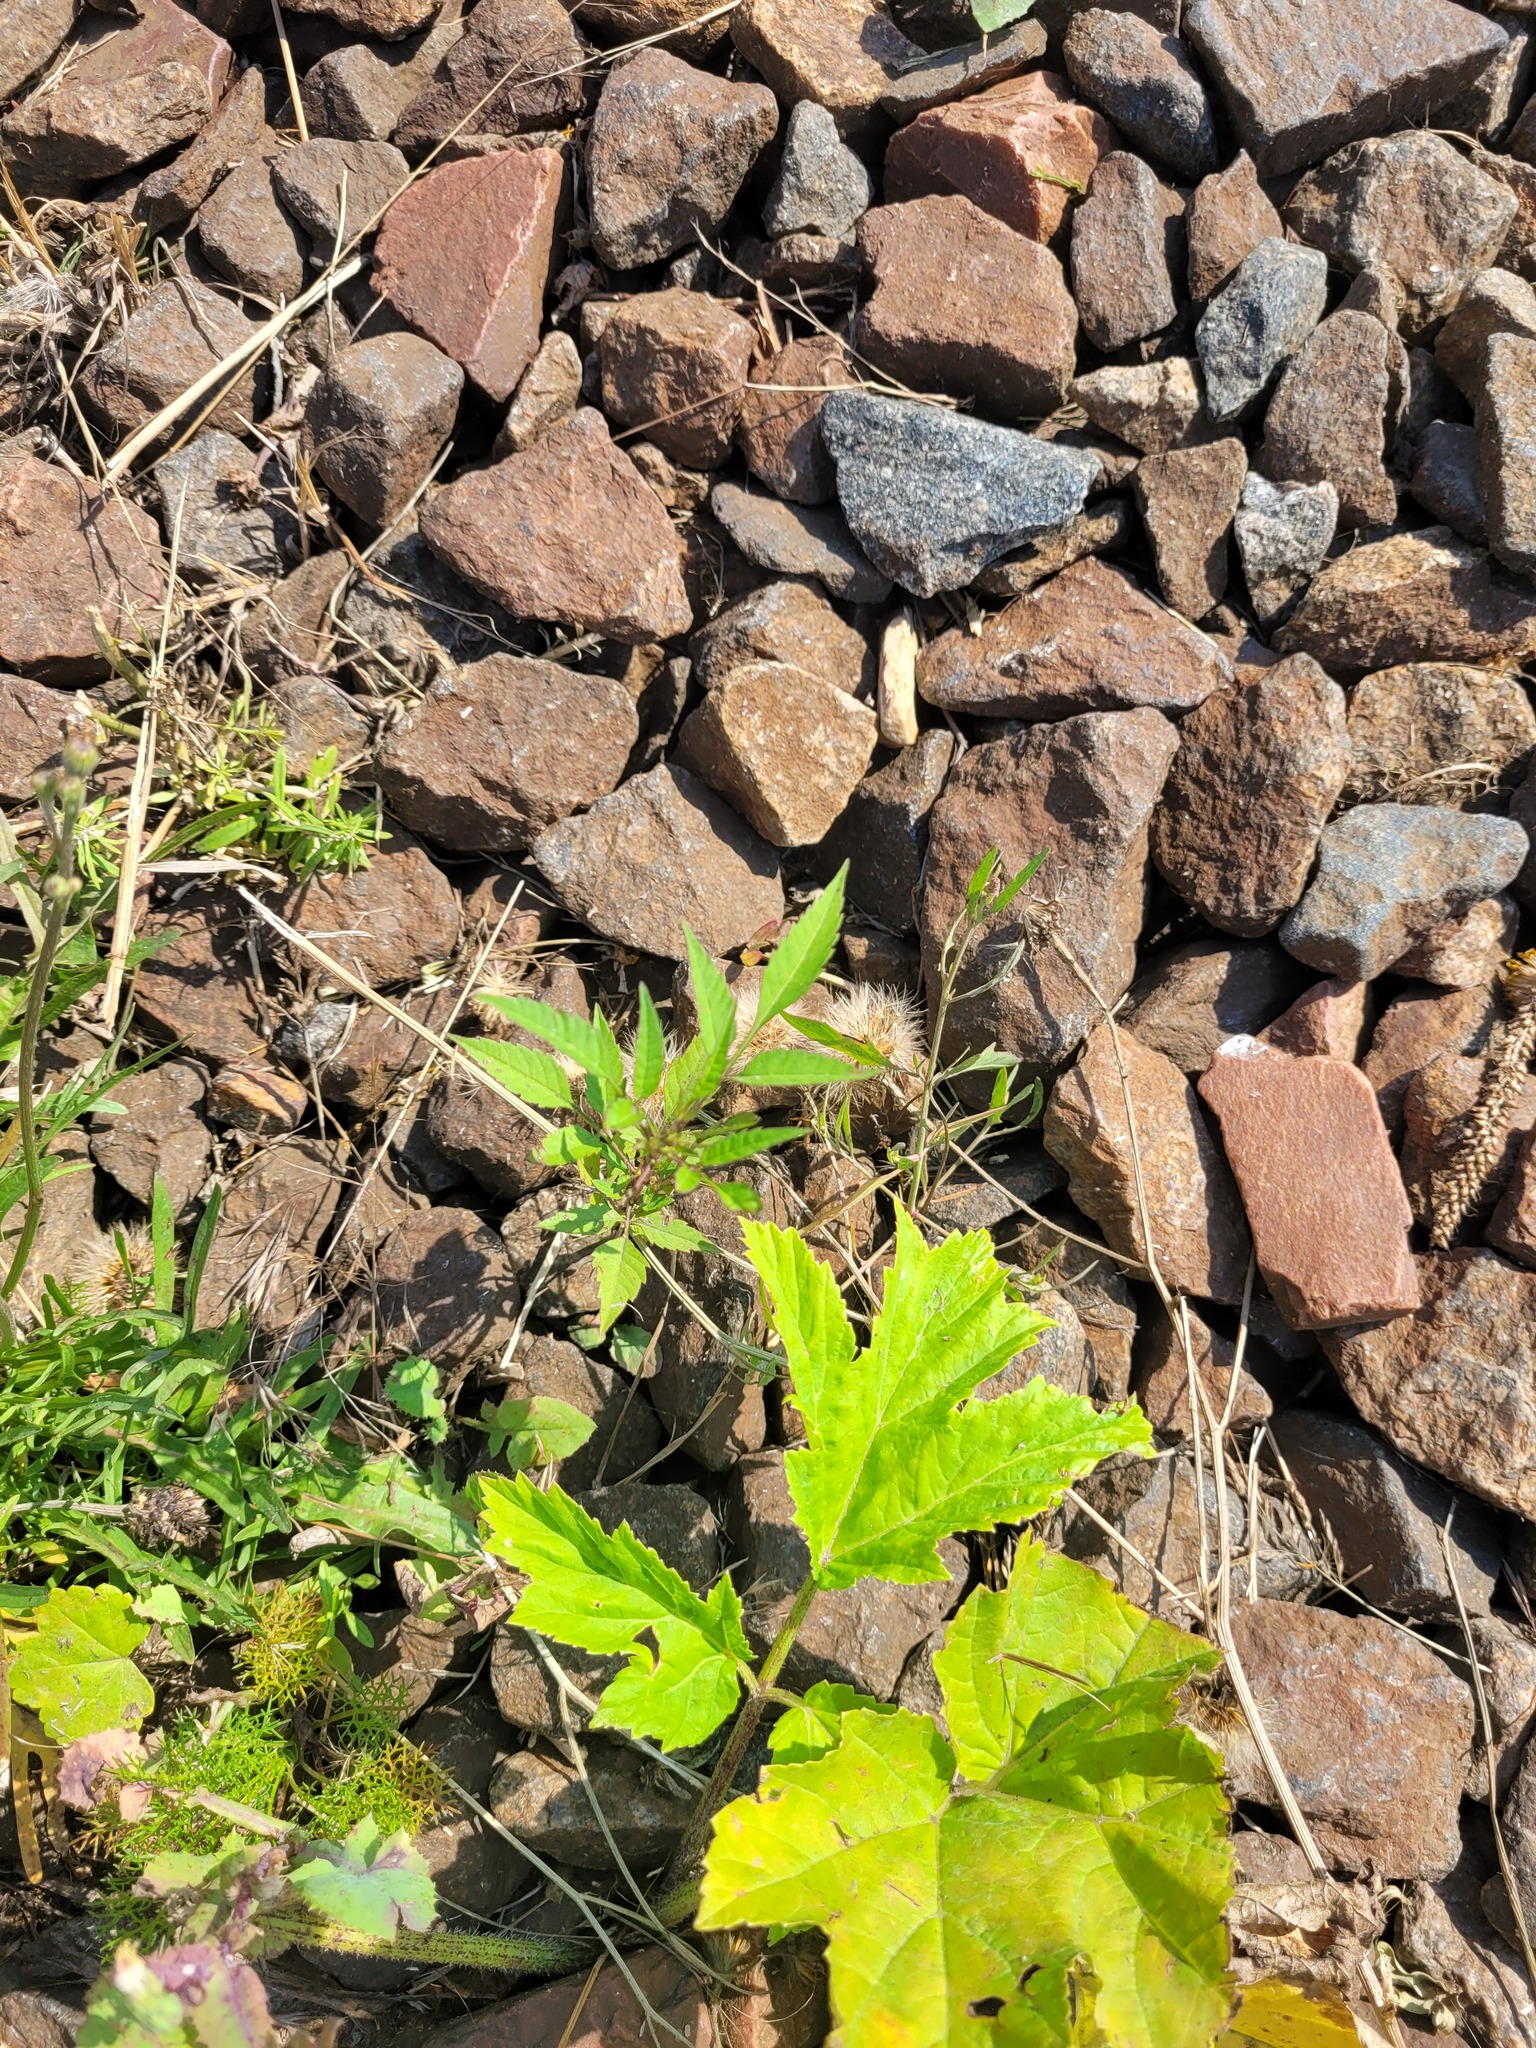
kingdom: Plantae
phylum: Tracheophyta
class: Magnoliopsida
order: Asterales
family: Asteraceae
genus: Bidens
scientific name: Bidens frondosa
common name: Beggarticks
